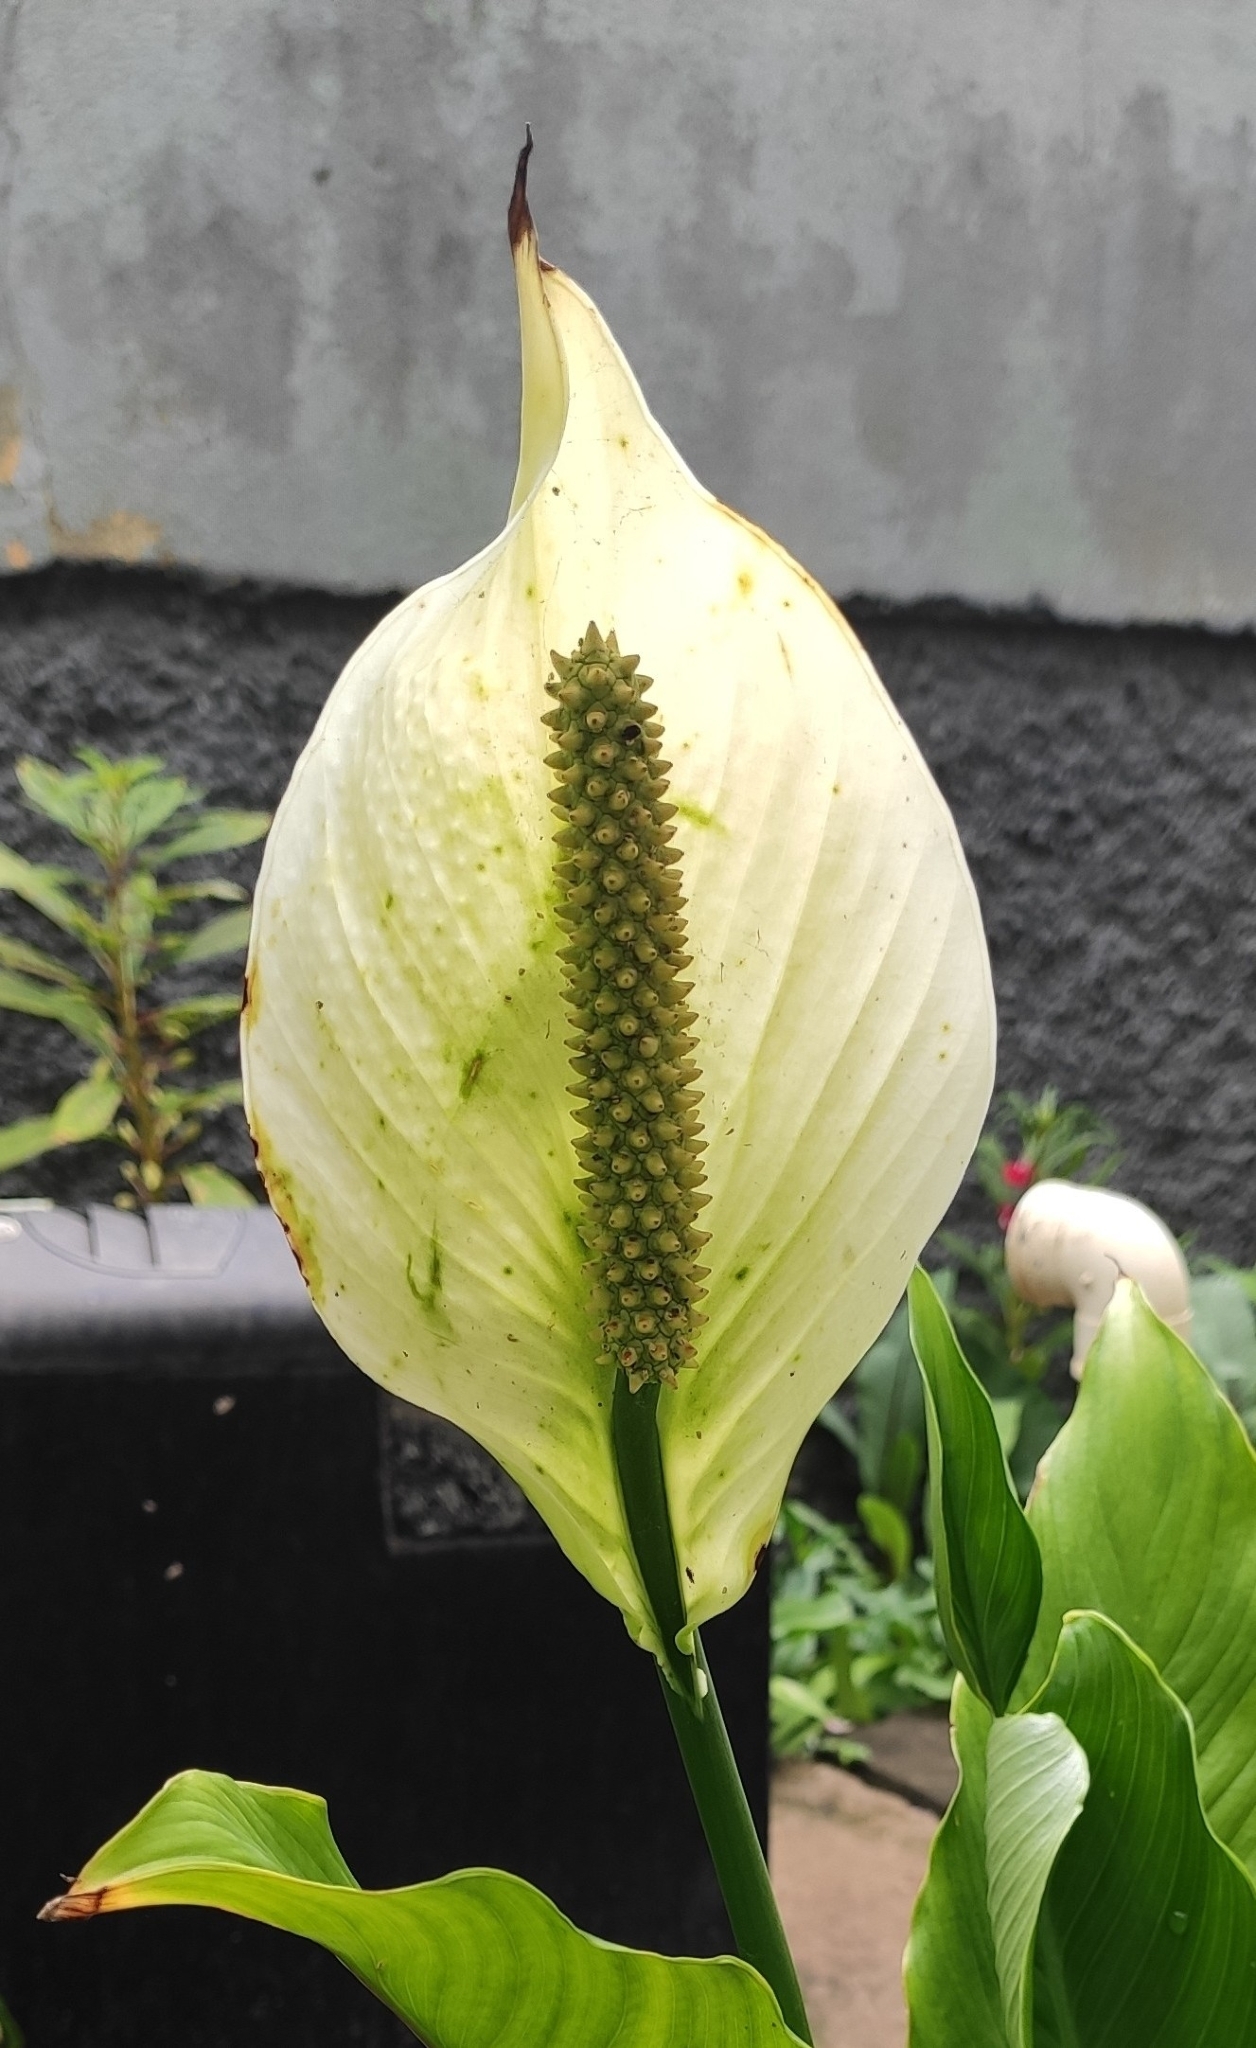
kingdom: Plantae
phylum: Tracheophyta
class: Liliopsida
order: Alismatales
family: Araceae
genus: Spathiphyllum
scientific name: Spathiphyllum wallisii
